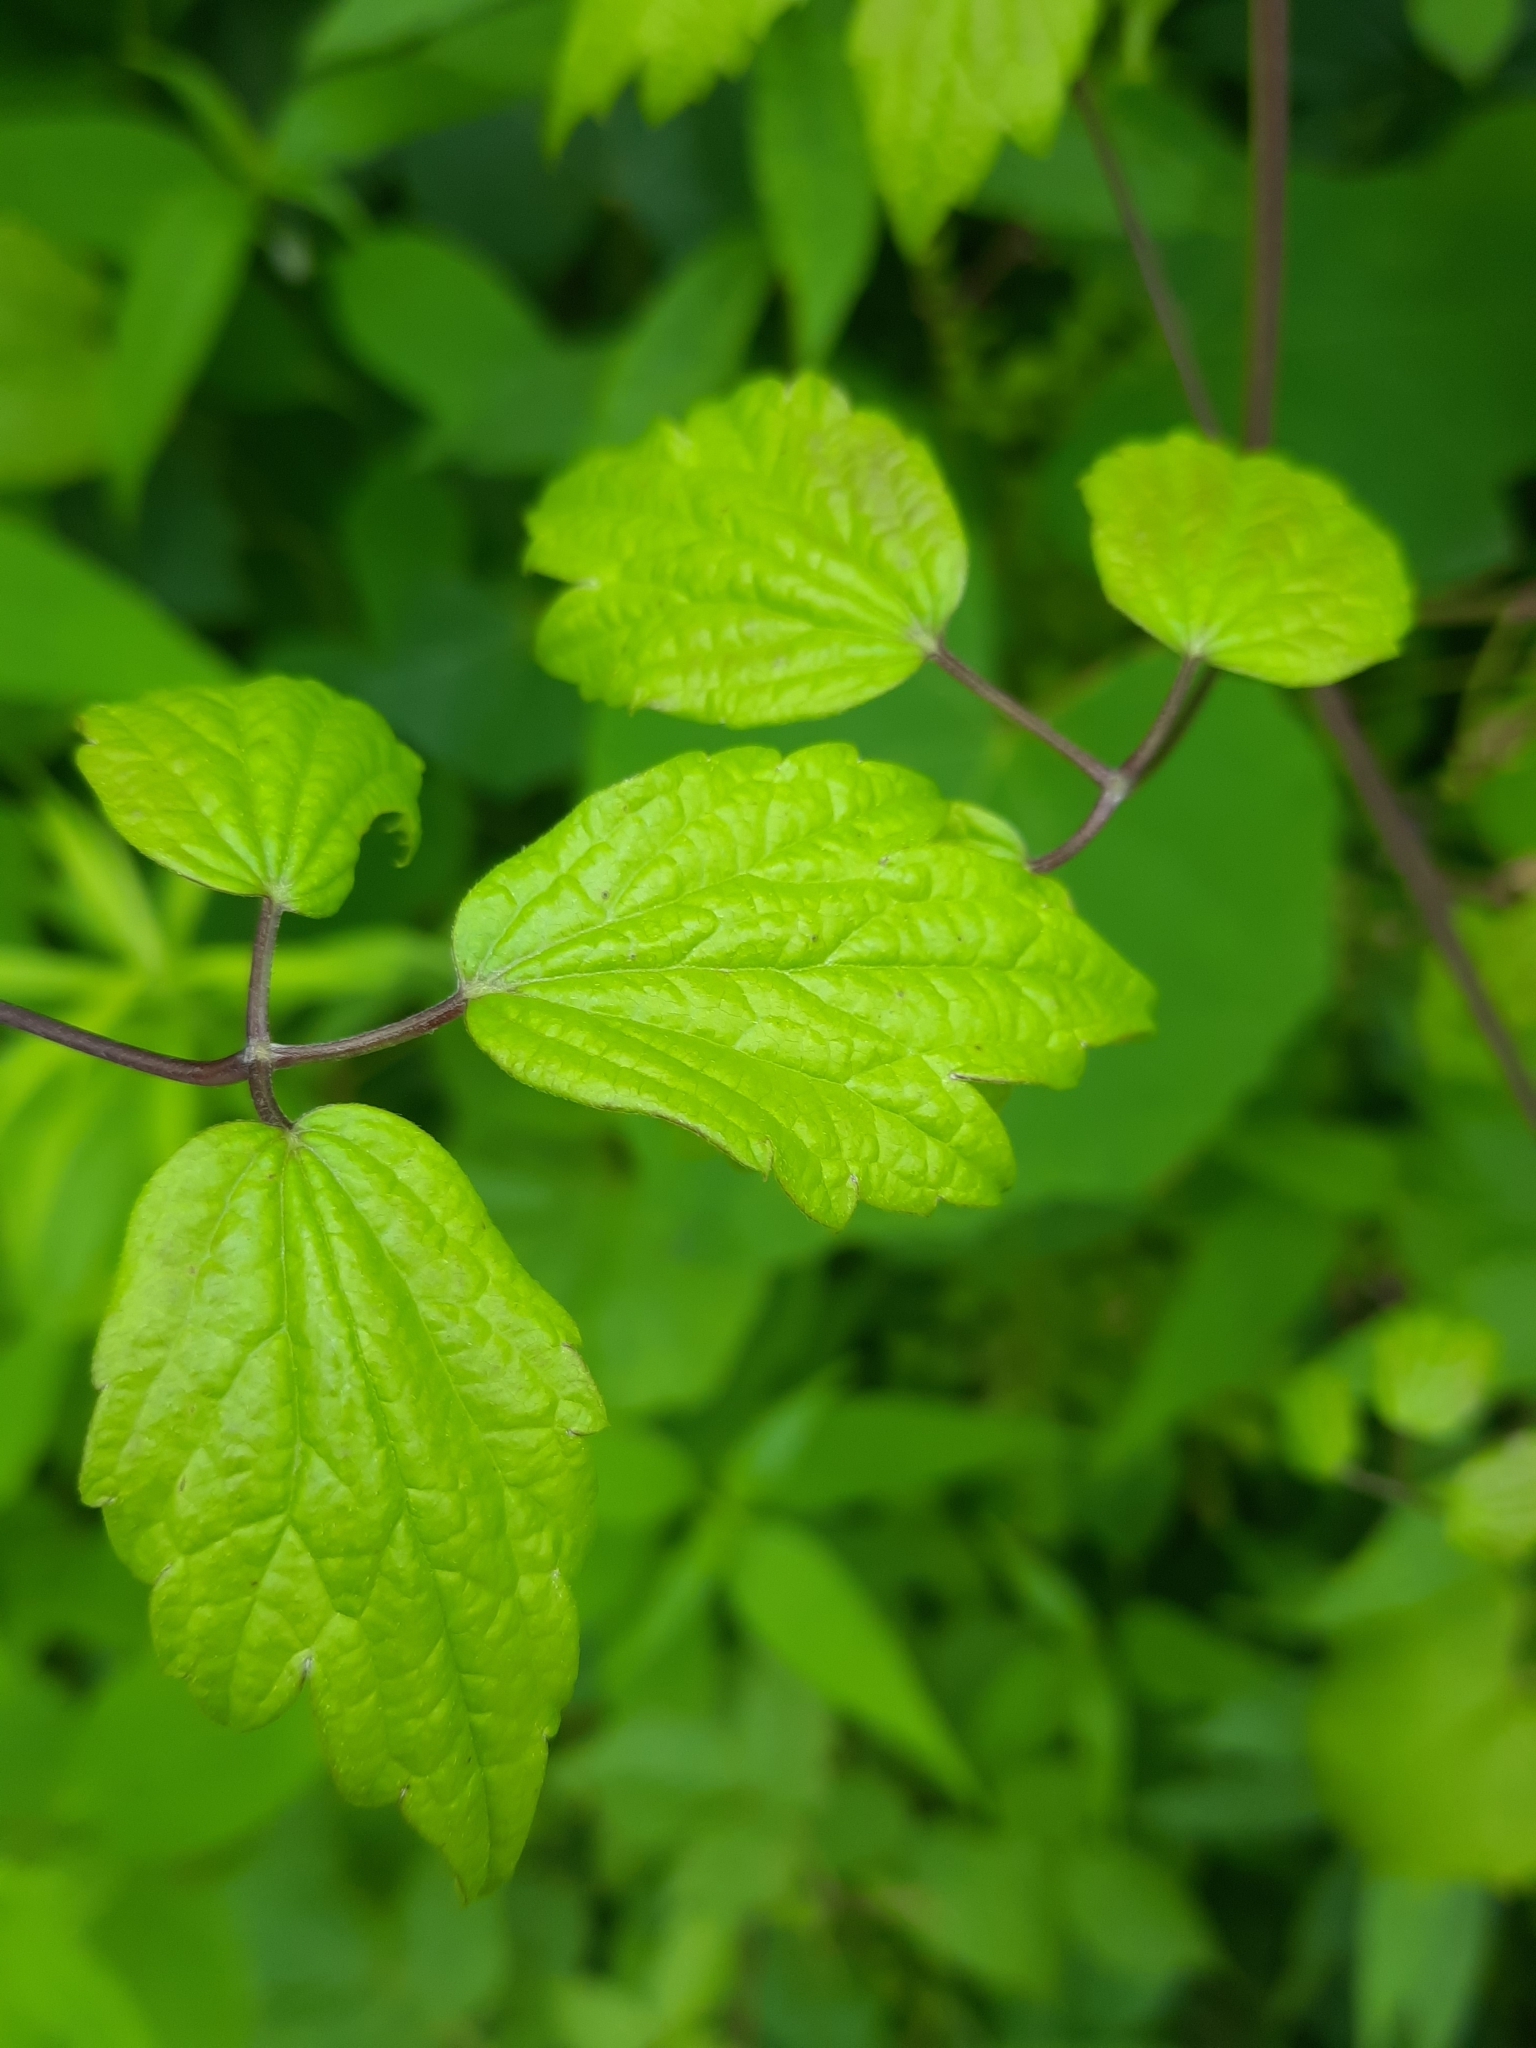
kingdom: Plantae
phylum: Tracheophyta
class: Magnoliopsida
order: Ranunculales
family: Ranunculaceae
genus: Clematis
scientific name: Clematis virginiana
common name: Virgin's-bower
